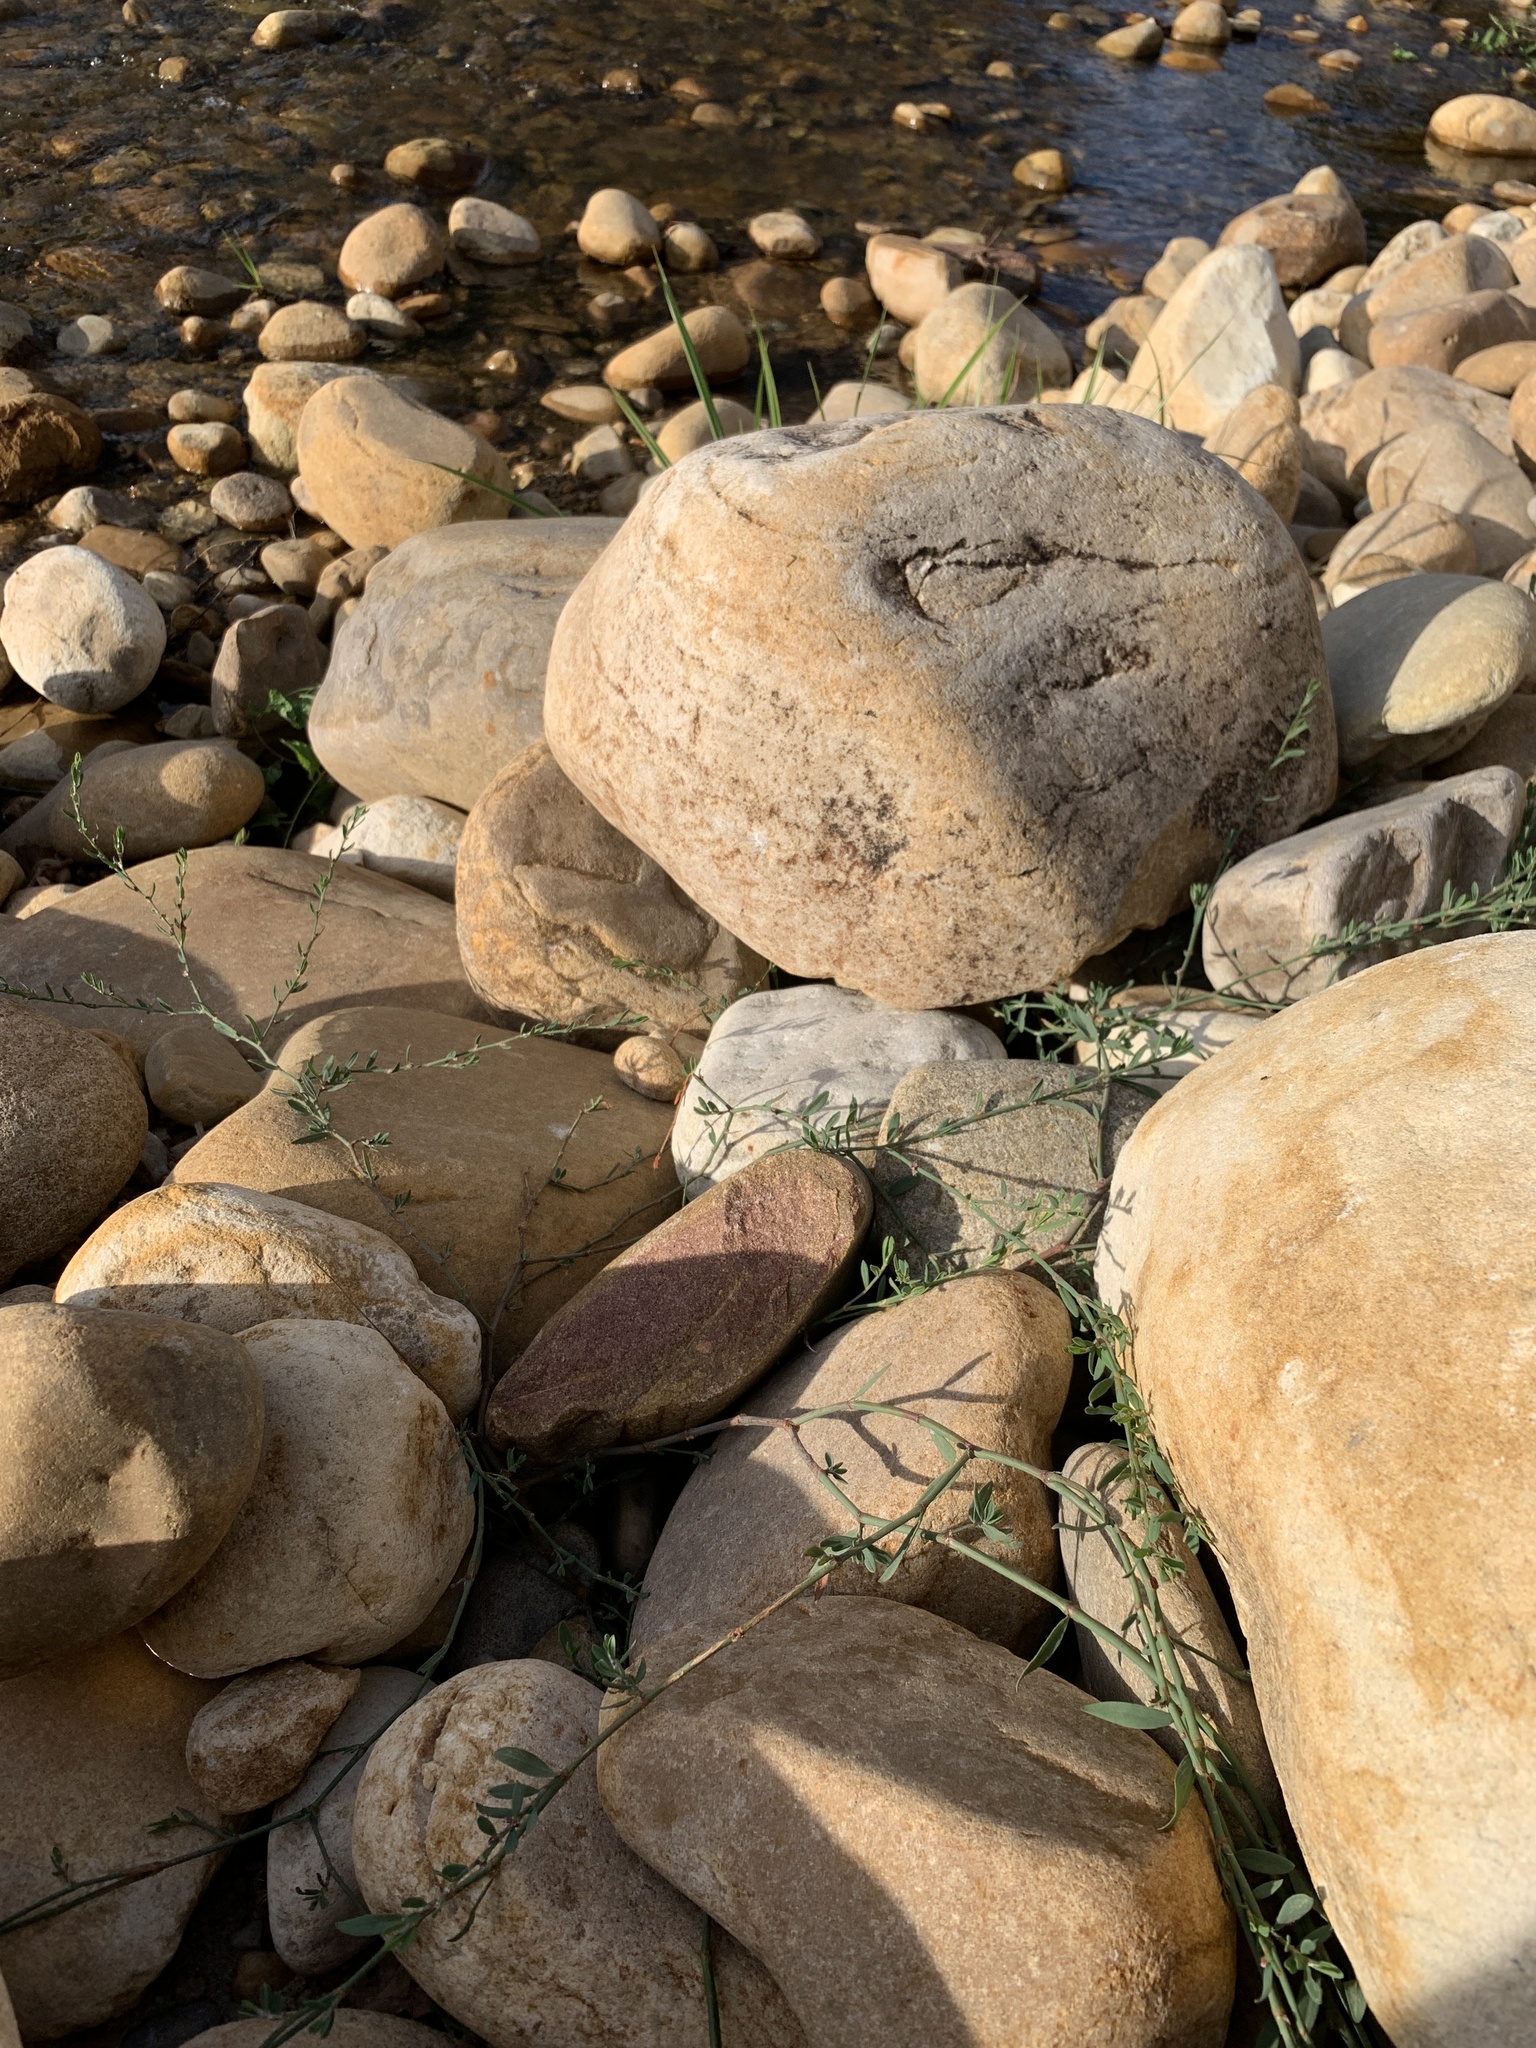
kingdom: Plantae
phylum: Tracheophyta
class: Magnoliopsida
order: Caryophyllales
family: Polygonaceae
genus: Polygonum
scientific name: Polygonum aviculare
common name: Prostrate knotweed
